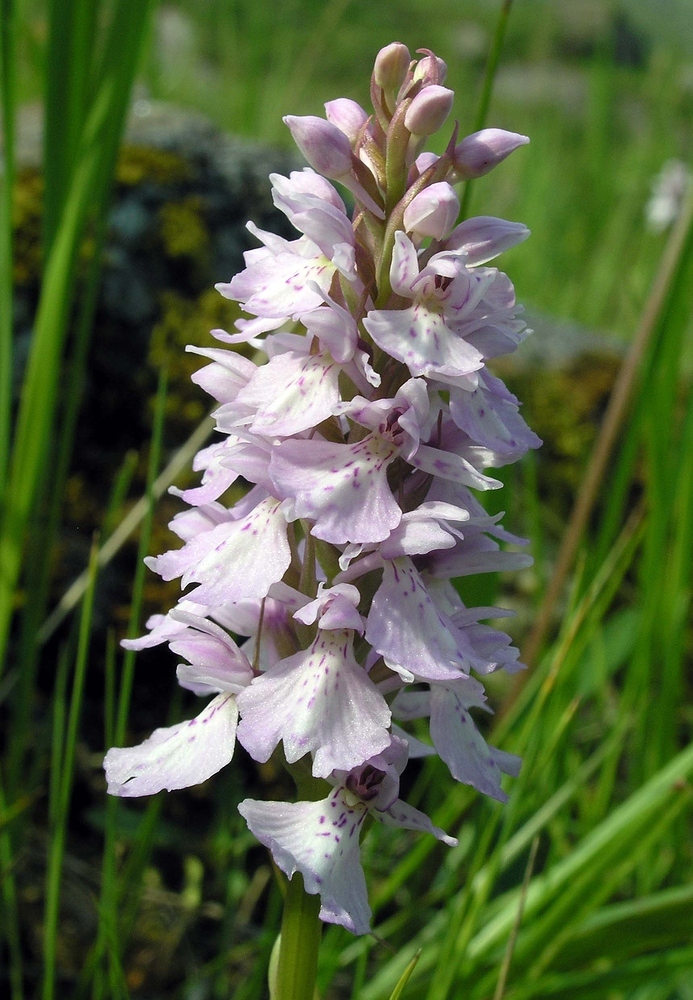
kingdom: Plantae
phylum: Tracheophyta
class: Liliopsida
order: Asparagales
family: Orchidaceae
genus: Dactylorhiza
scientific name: Dactylorhiza maculata
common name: Heath spotted-orchid
